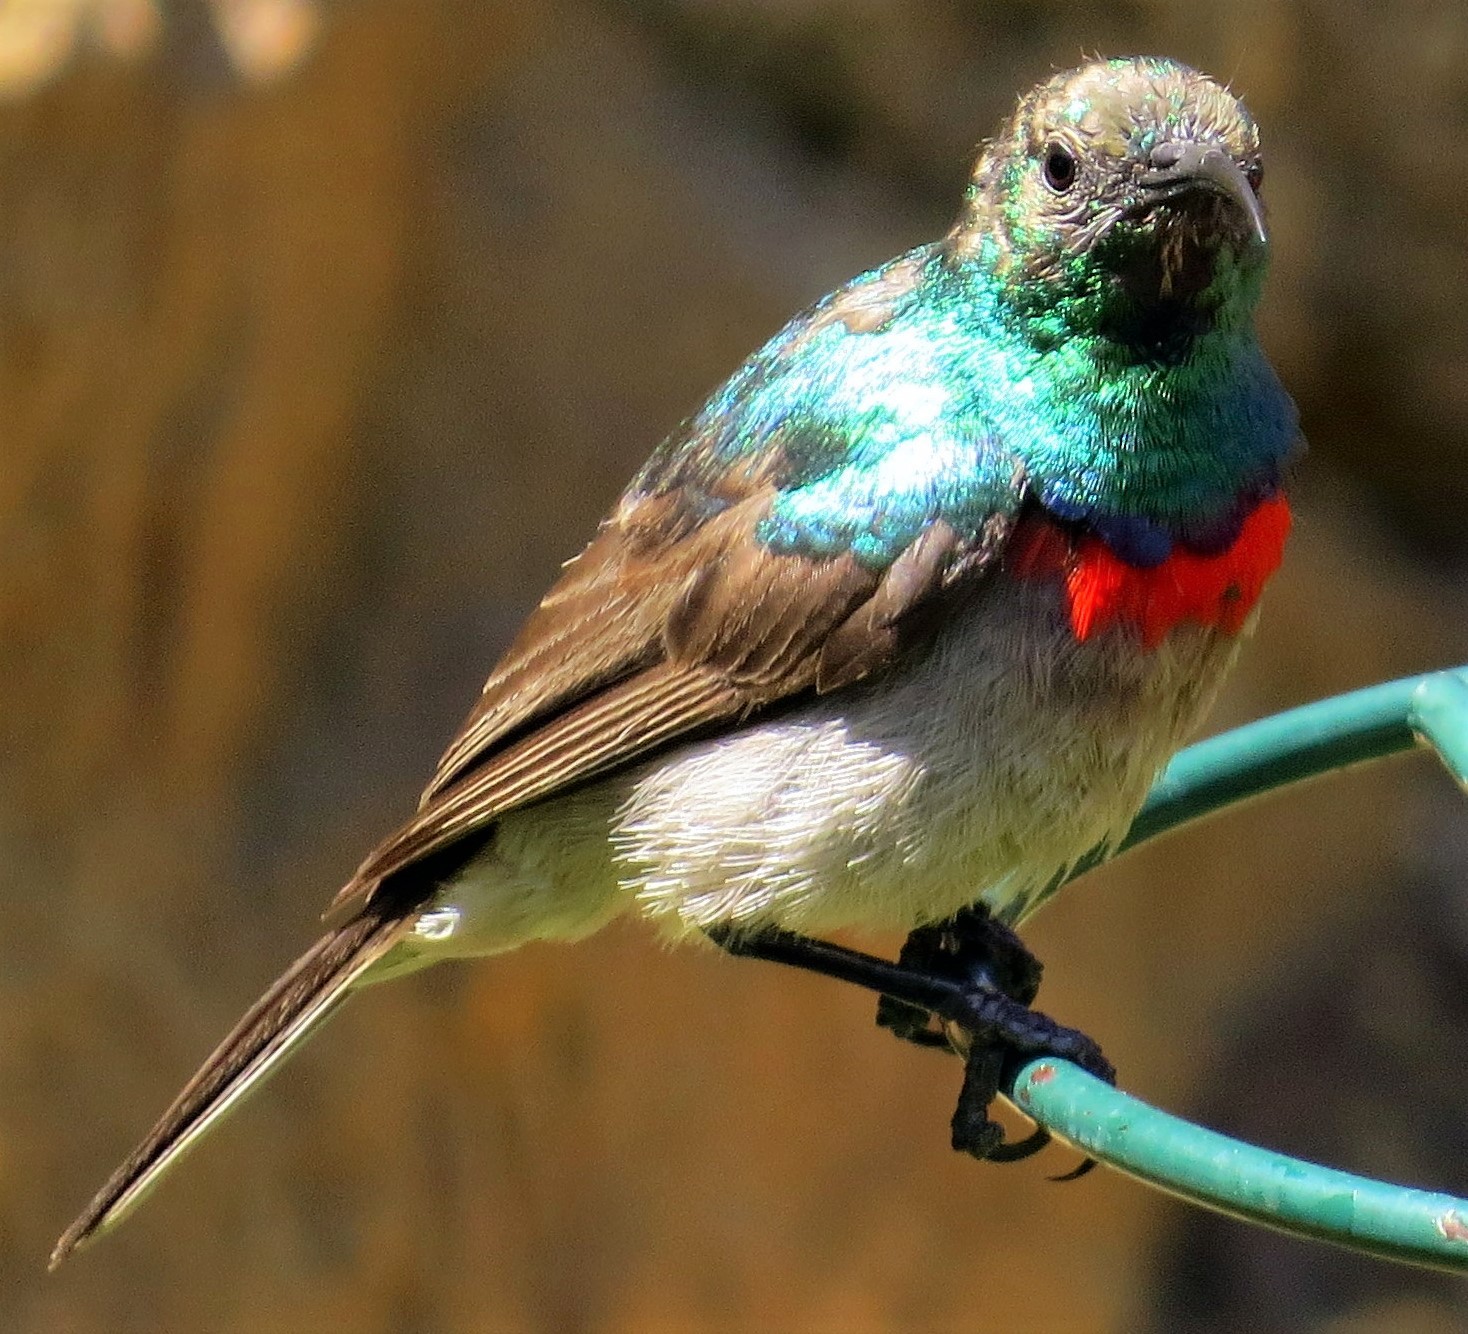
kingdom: Animalia
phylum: Chordata
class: Aves
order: Passeriformes
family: Nectariniidae
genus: Cinnyris
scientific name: Cinnyris chalybeus
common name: Southern double-collared sunbird
